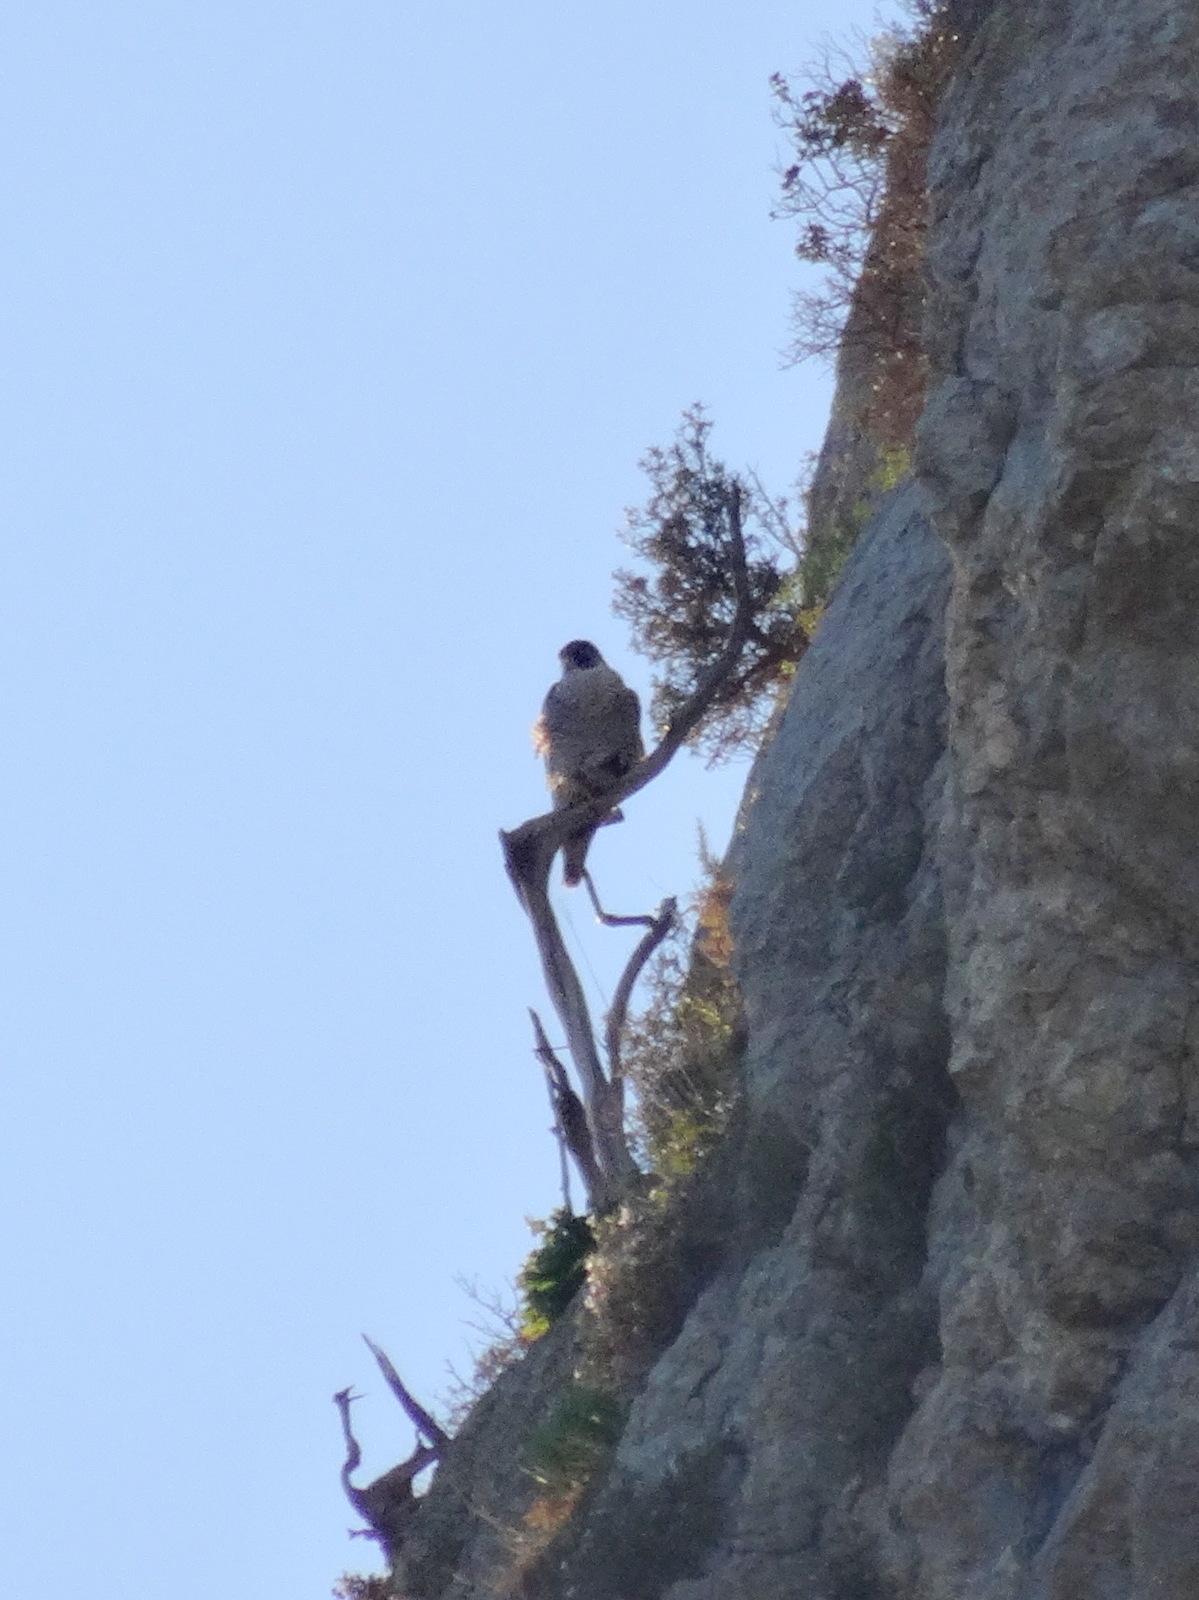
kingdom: Animalia
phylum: Chordata
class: Aves
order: Falconiformes
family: Falconidae
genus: Falco
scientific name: Falco peregrinus
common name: Peregrine falcon
